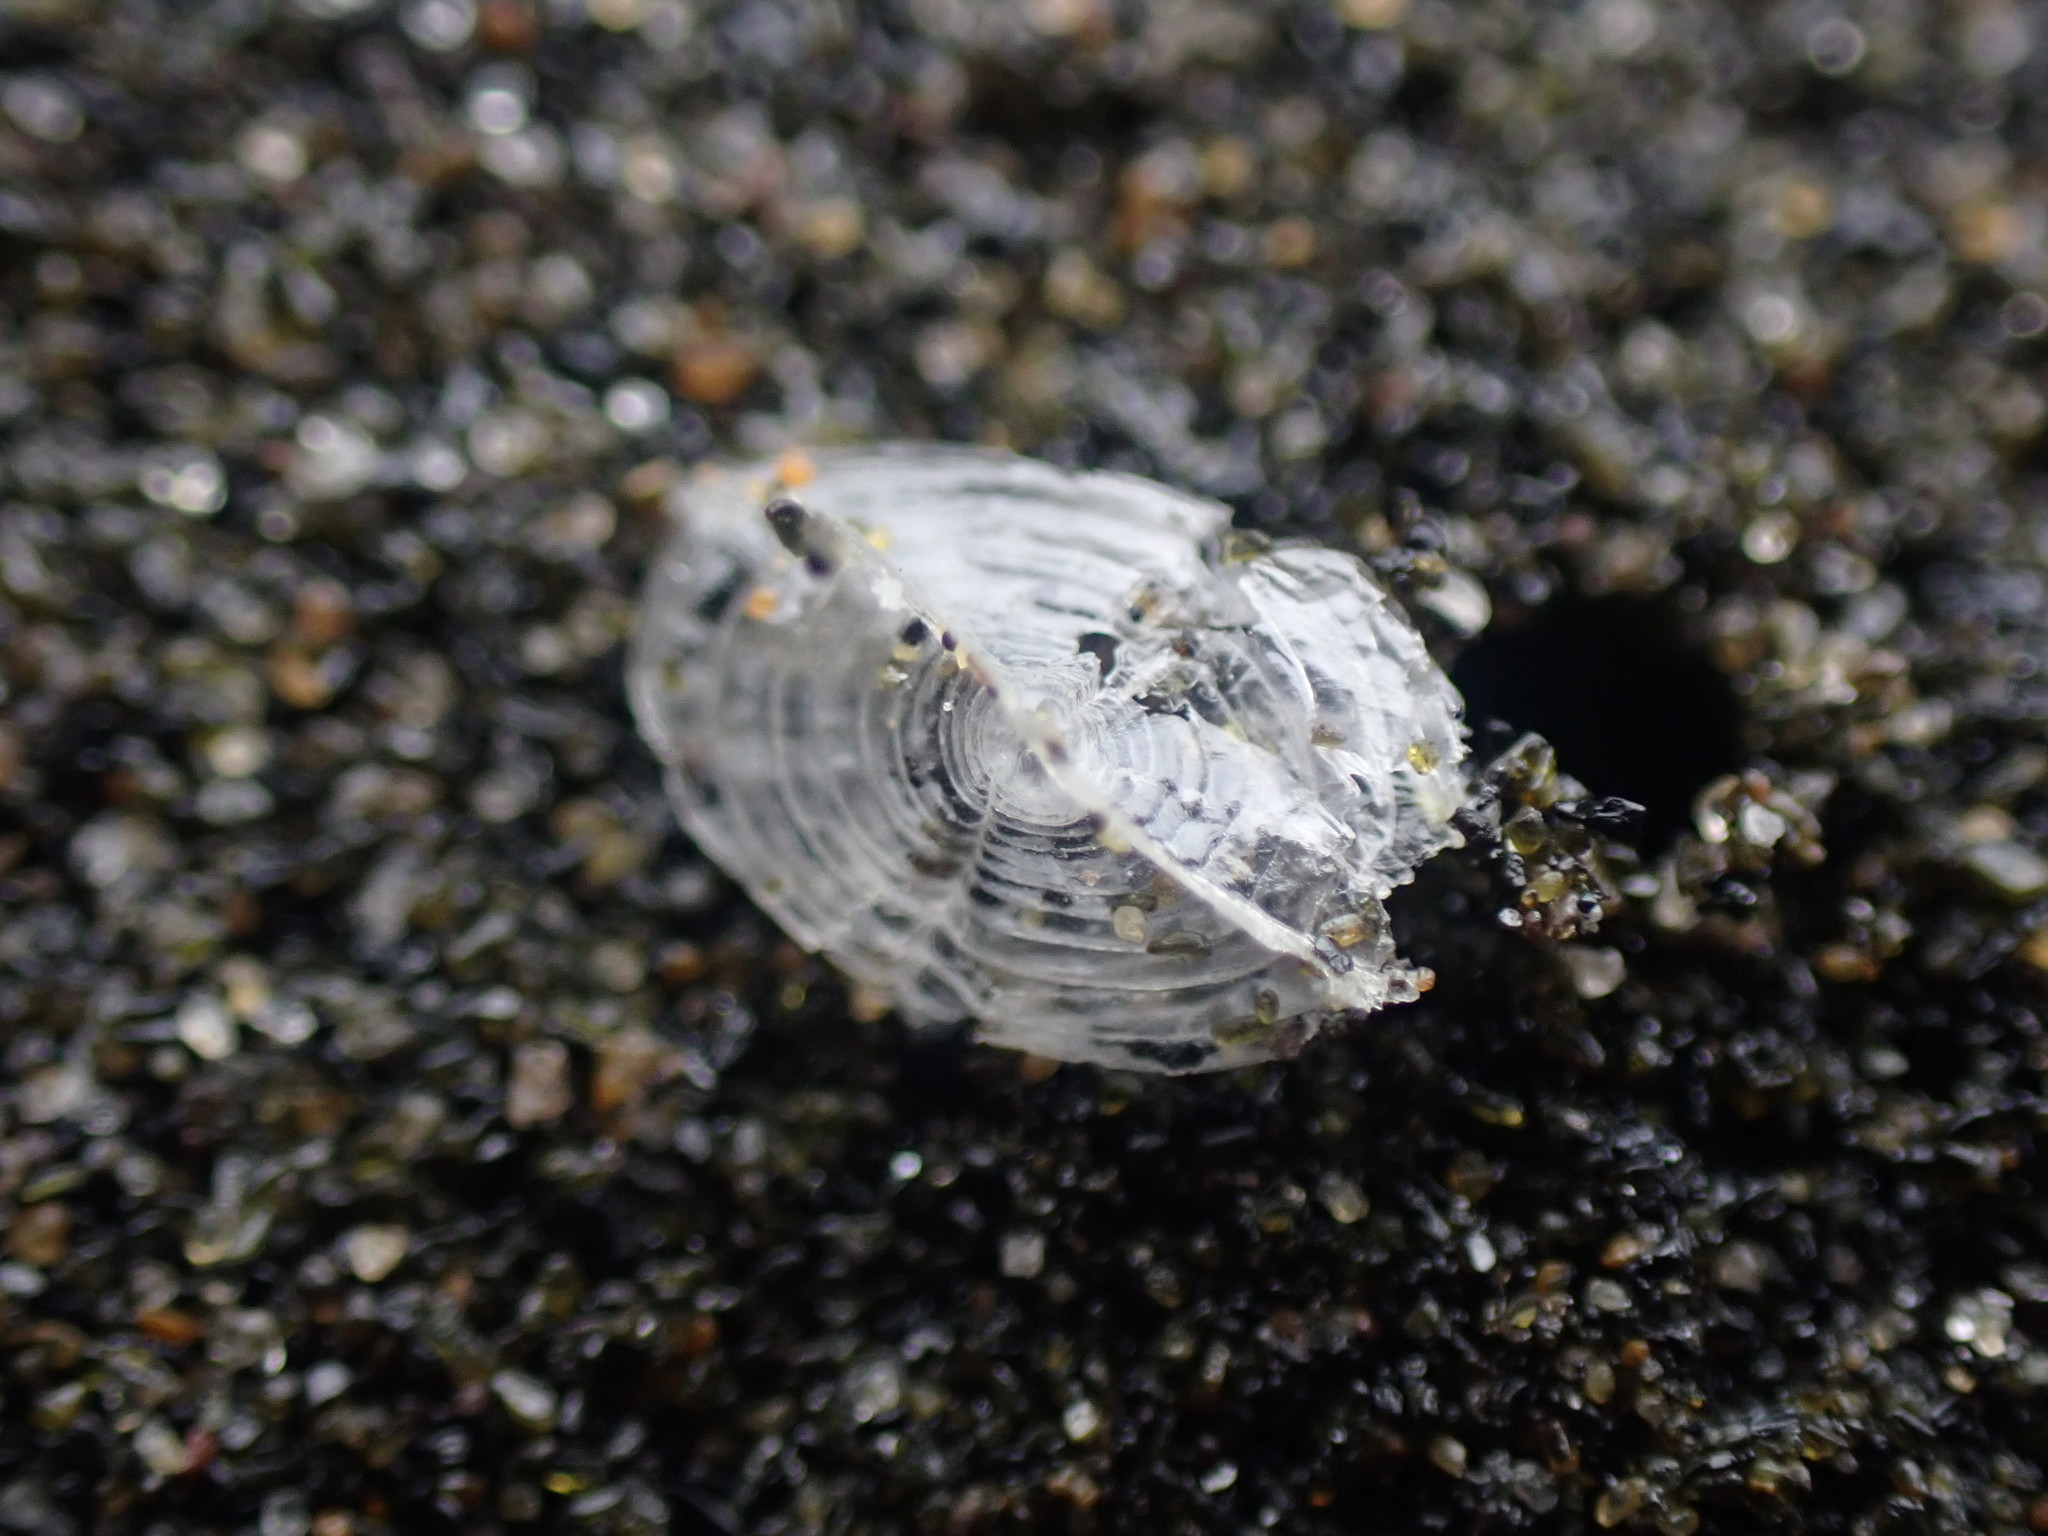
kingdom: Animalia
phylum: Cnidaria
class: Hydrozoa
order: Anthoathecata
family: Porpitidae
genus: Velella
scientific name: Velella velella
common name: By-the-wind-sailor
